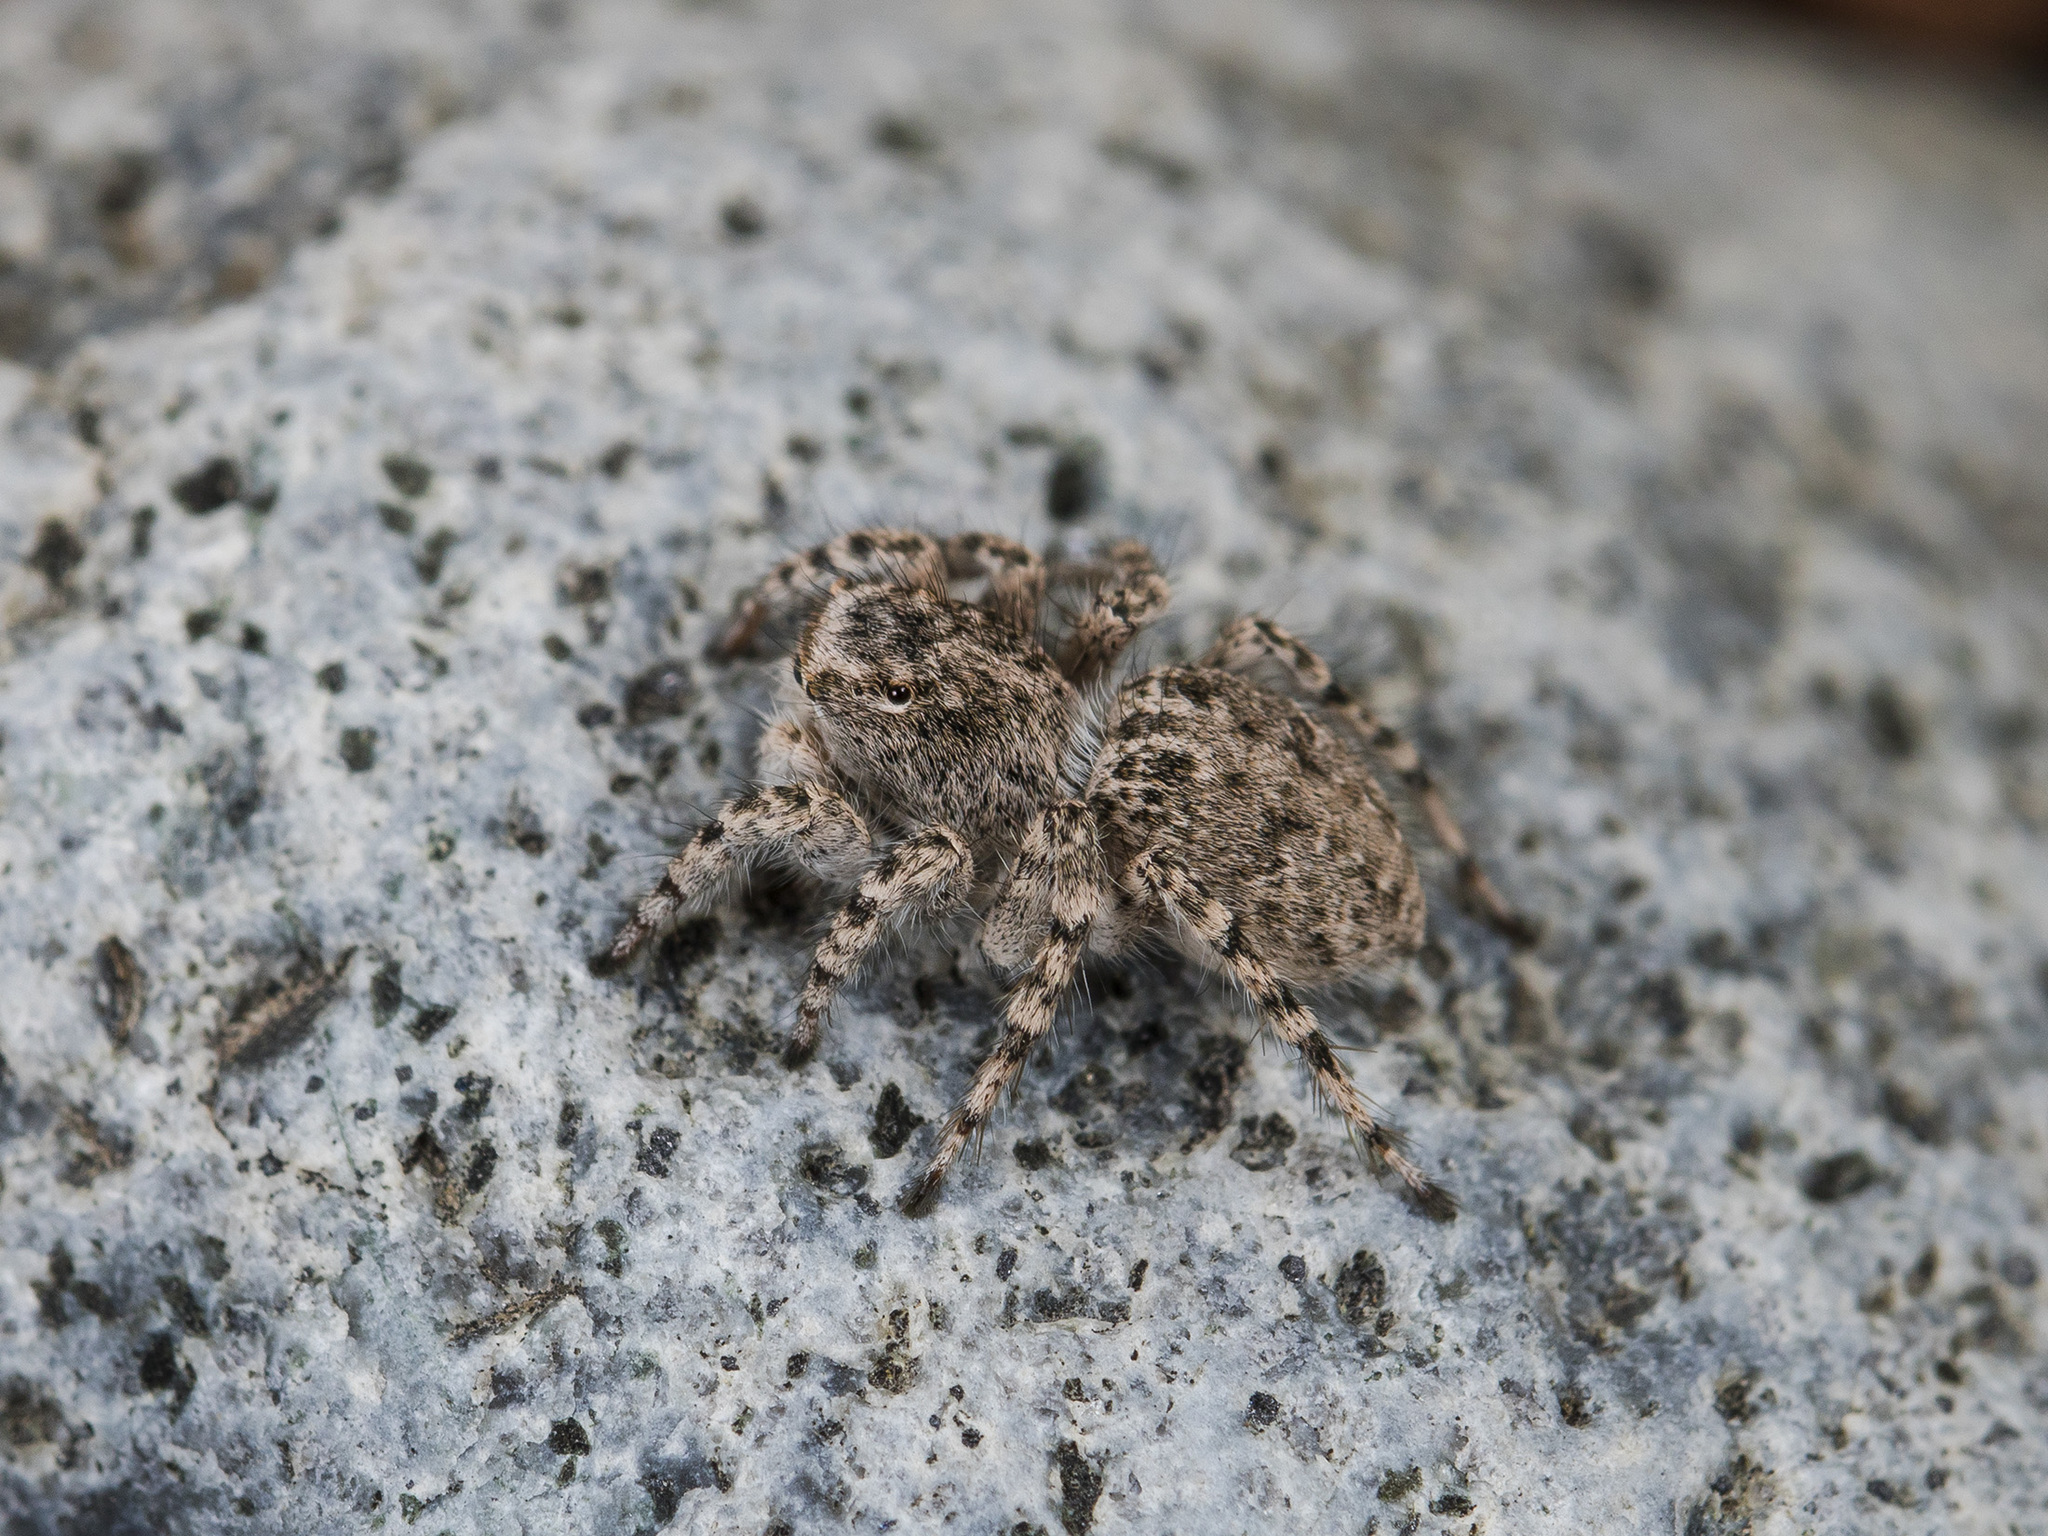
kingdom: Animalia
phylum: Arthropoda
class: Arachnida
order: Araneae
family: Salticidae
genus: Aelurillus
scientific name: Aelurillus dubatolovi
